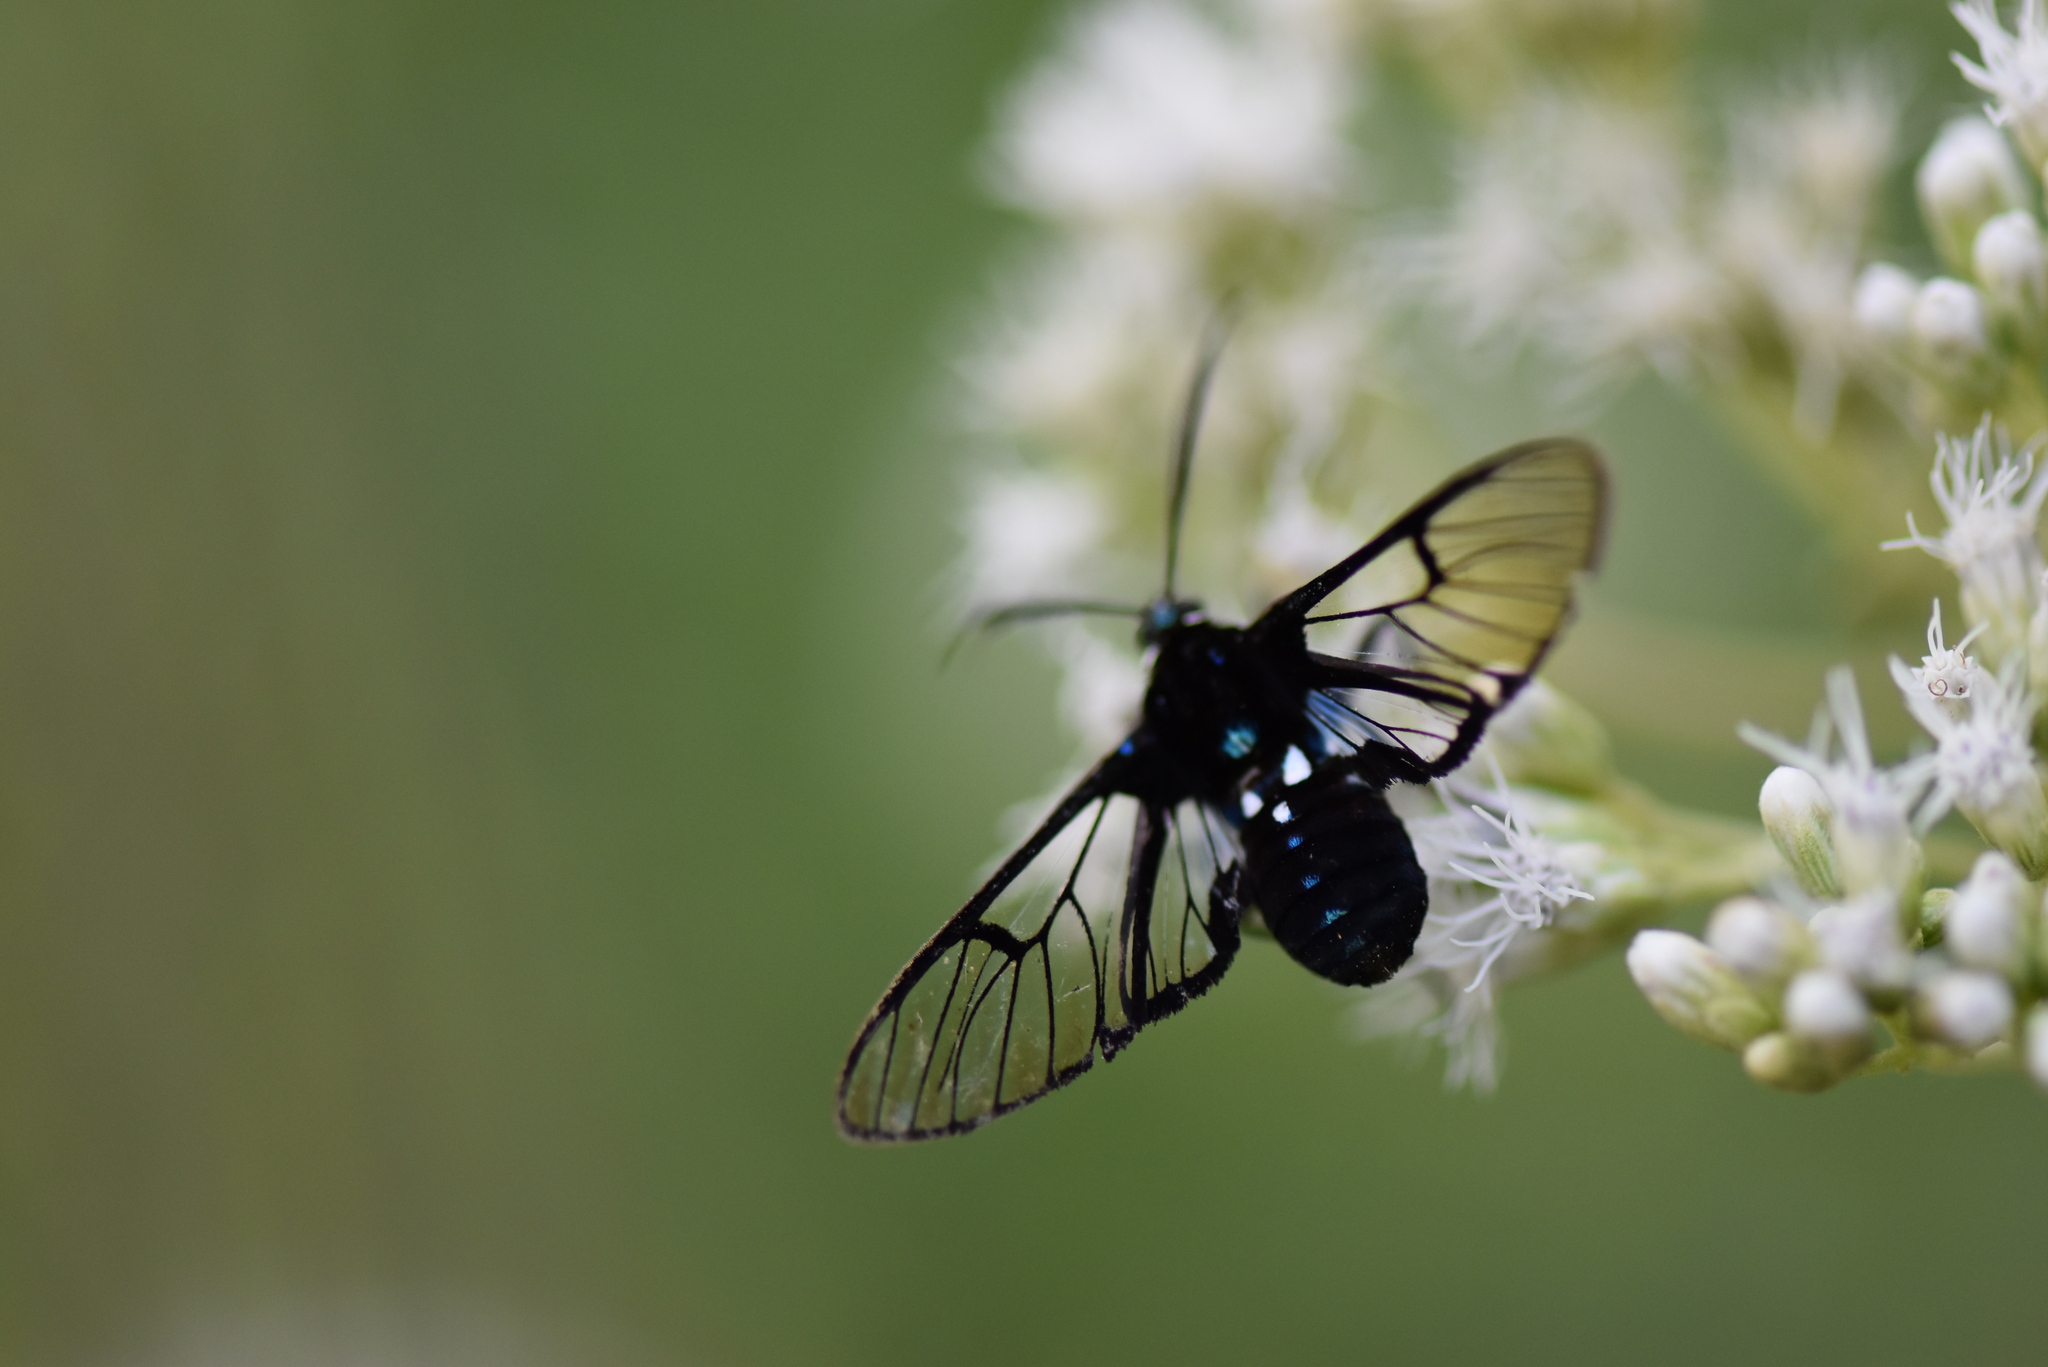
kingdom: Animalia
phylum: Arthropoda
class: Insecta
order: Lepidoptera
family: Erebidae
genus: Homoeocera
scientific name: Homoeocera acuminata
